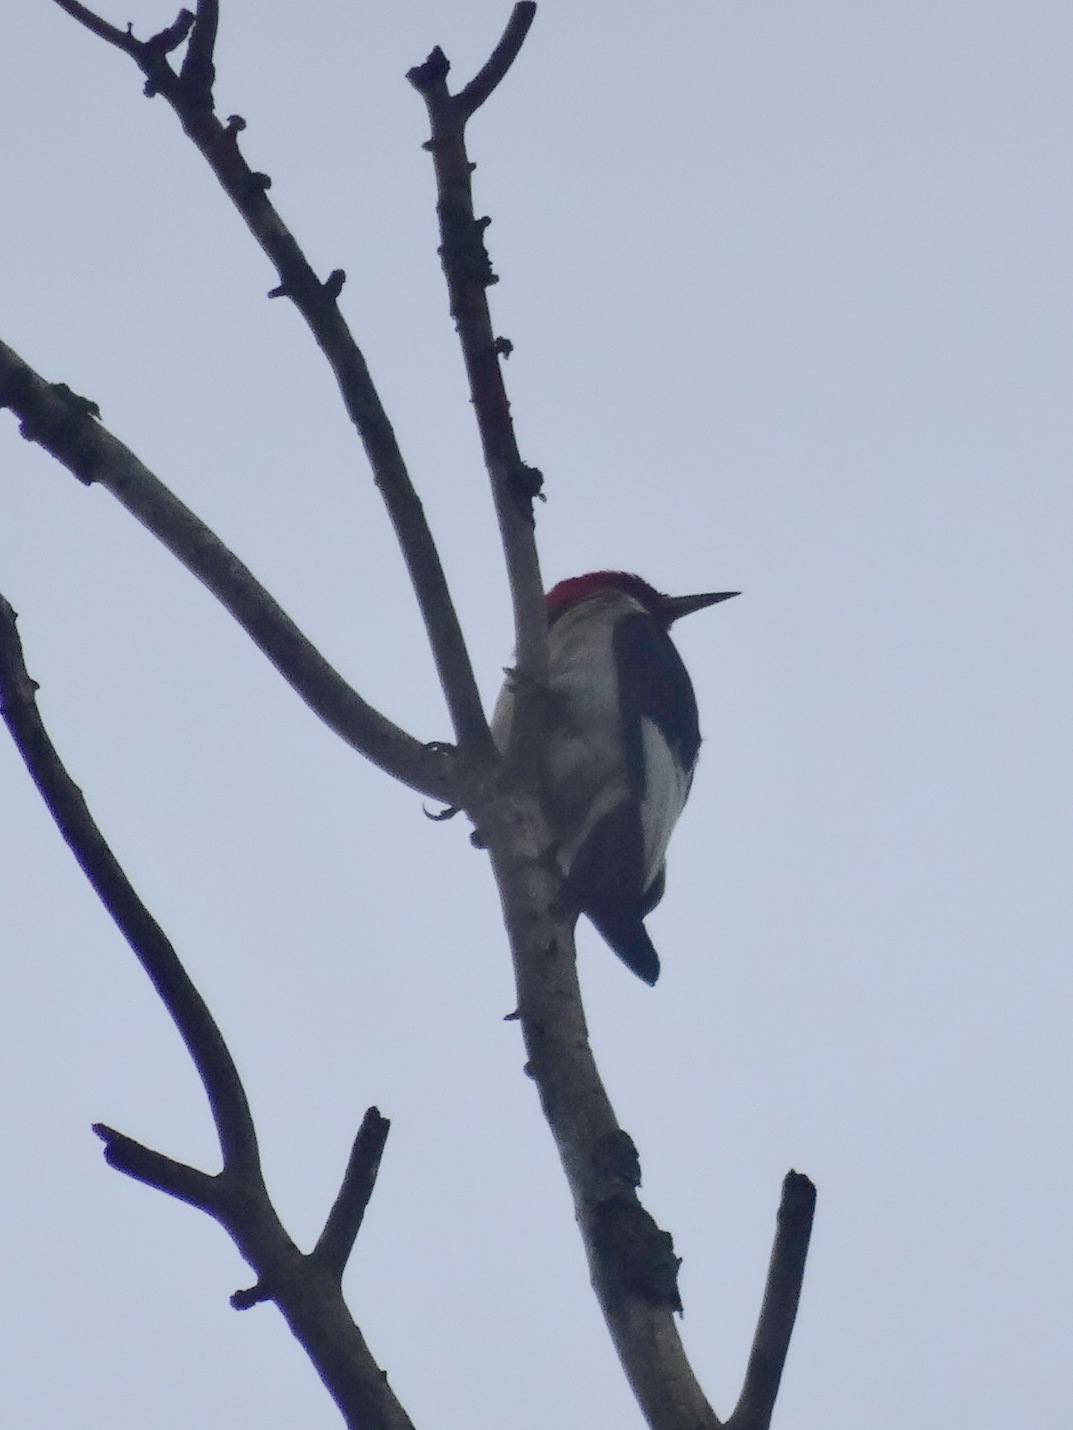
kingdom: Animalia
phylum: Chordata
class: Aves
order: Piciformes
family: Picidae
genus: Melanerpes
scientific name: Melanerpes erythrocephalus
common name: Red-headed woodpecker
